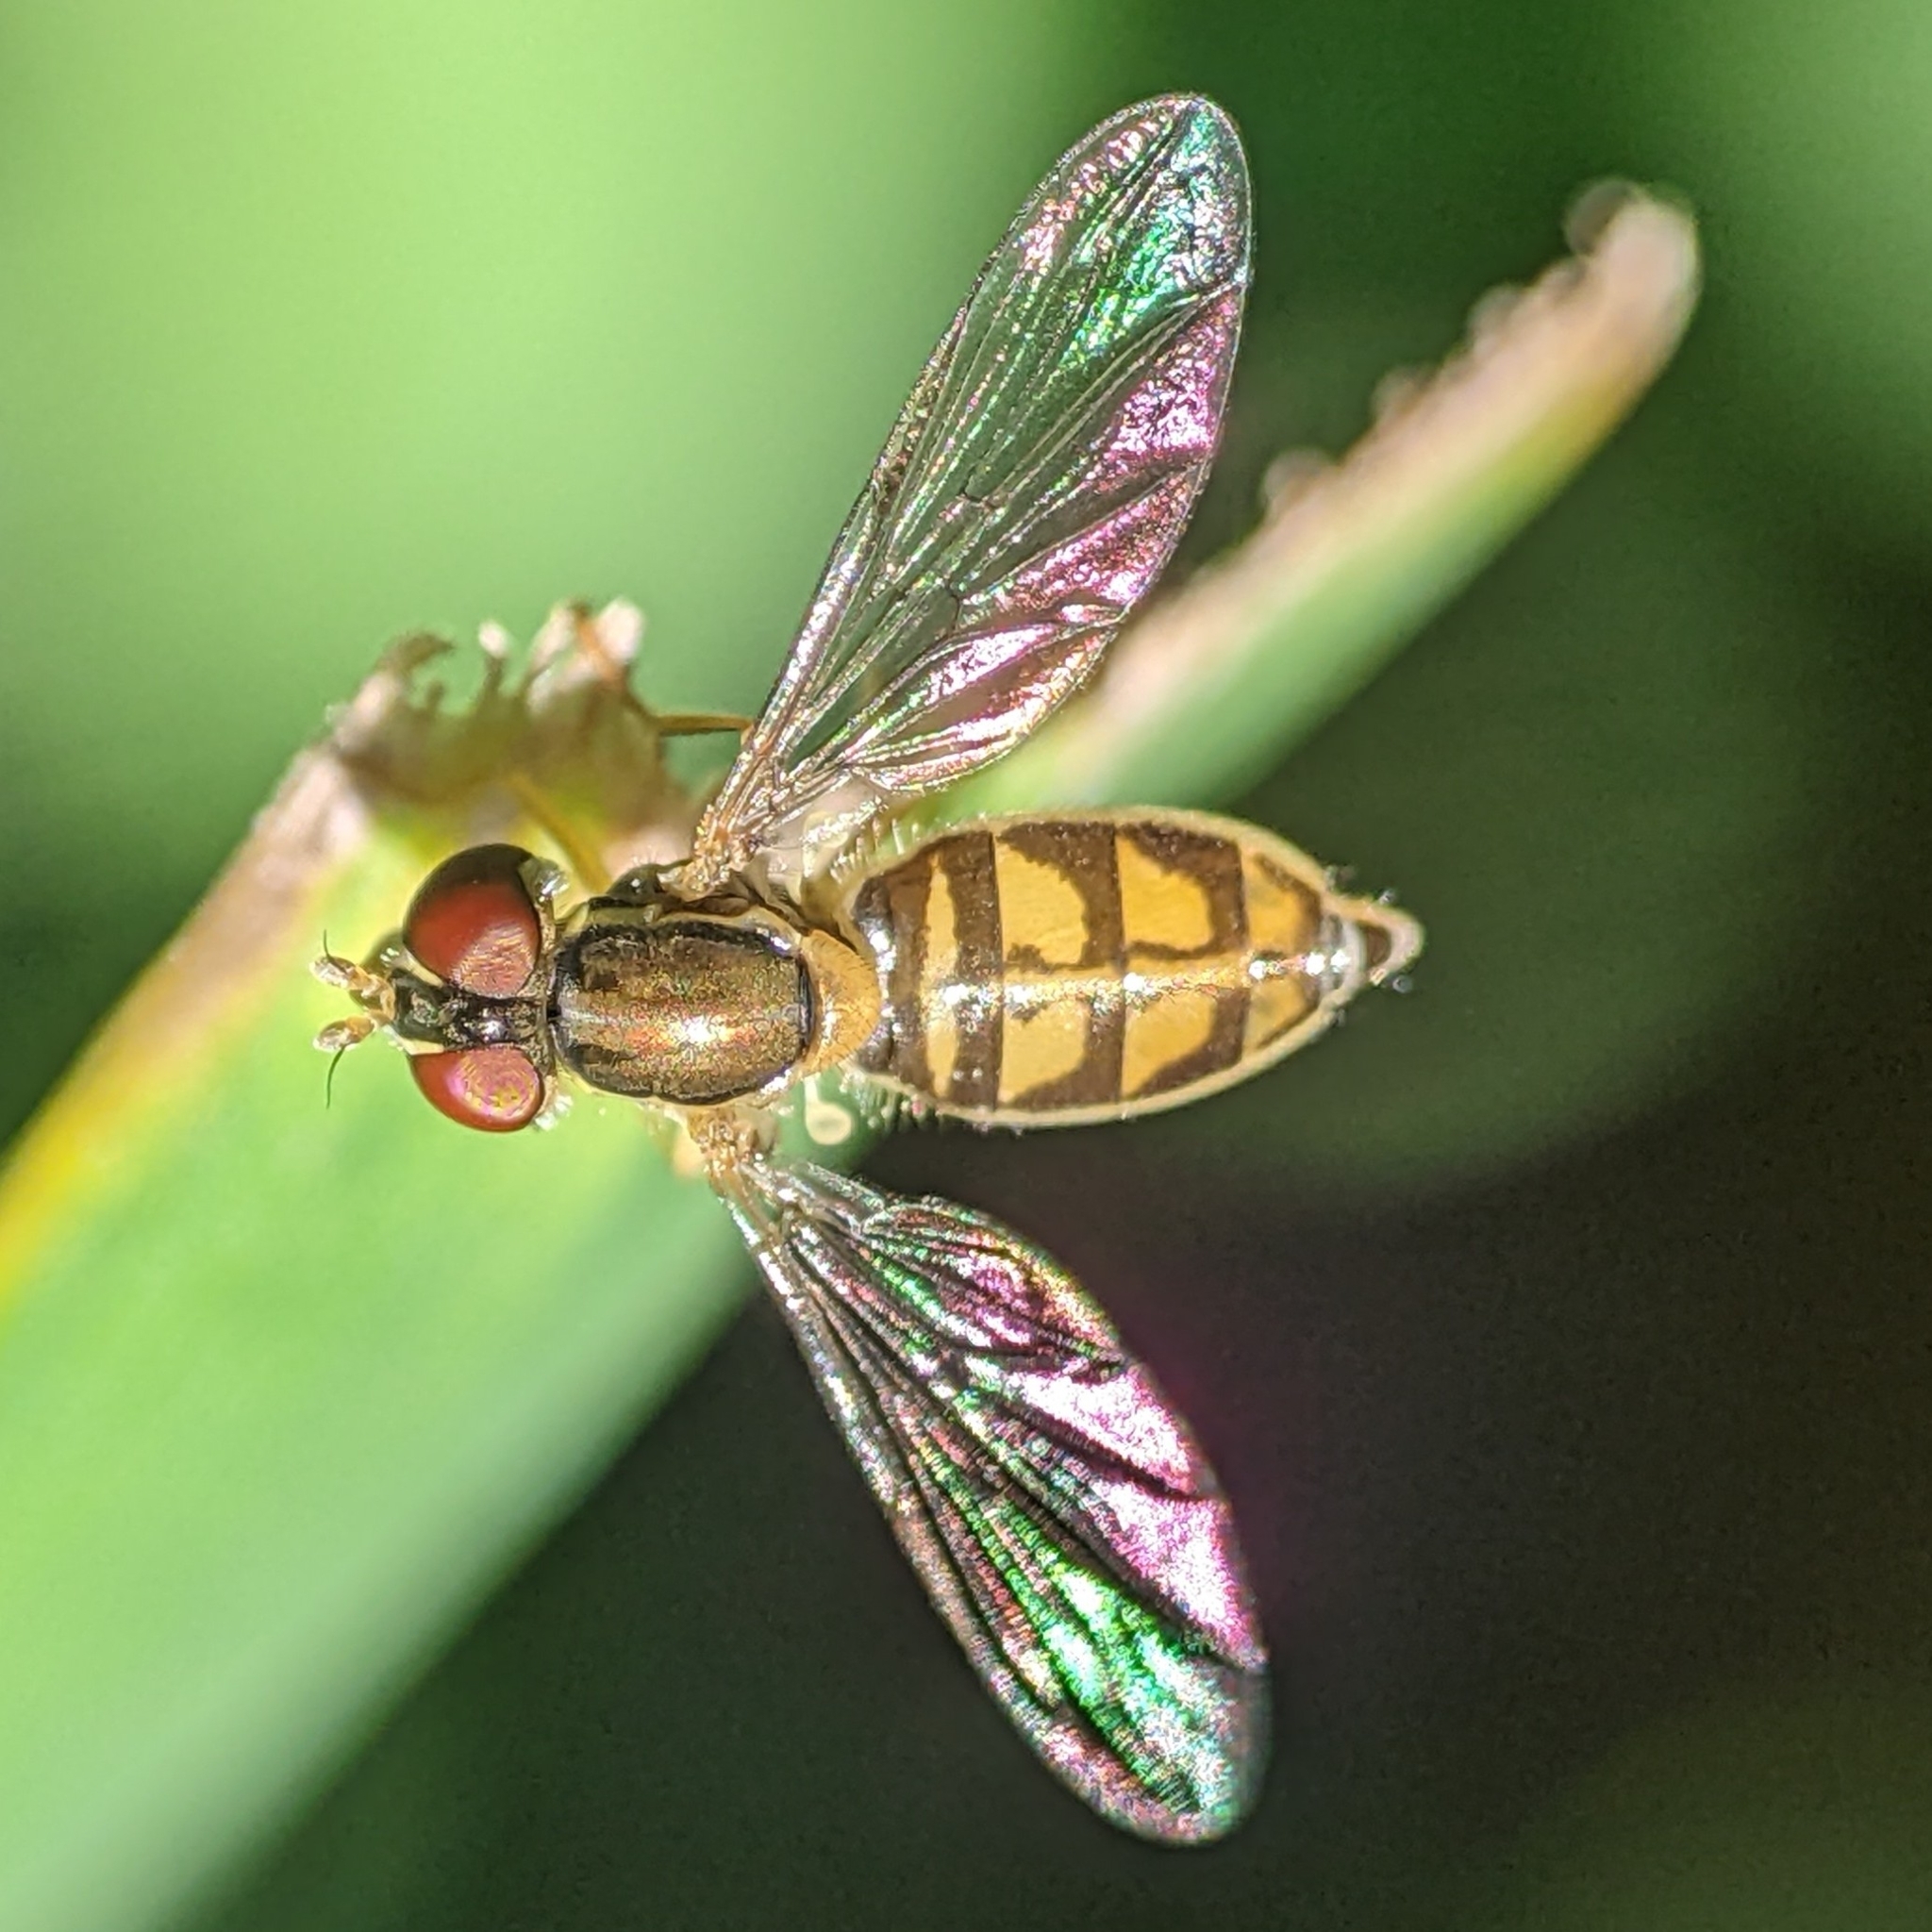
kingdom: Animalia
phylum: Arthropoda
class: Insecta
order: Diptera
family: Syrphidae
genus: Toxomerus
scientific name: Toxomerus marginatus
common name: Syrphid fly
